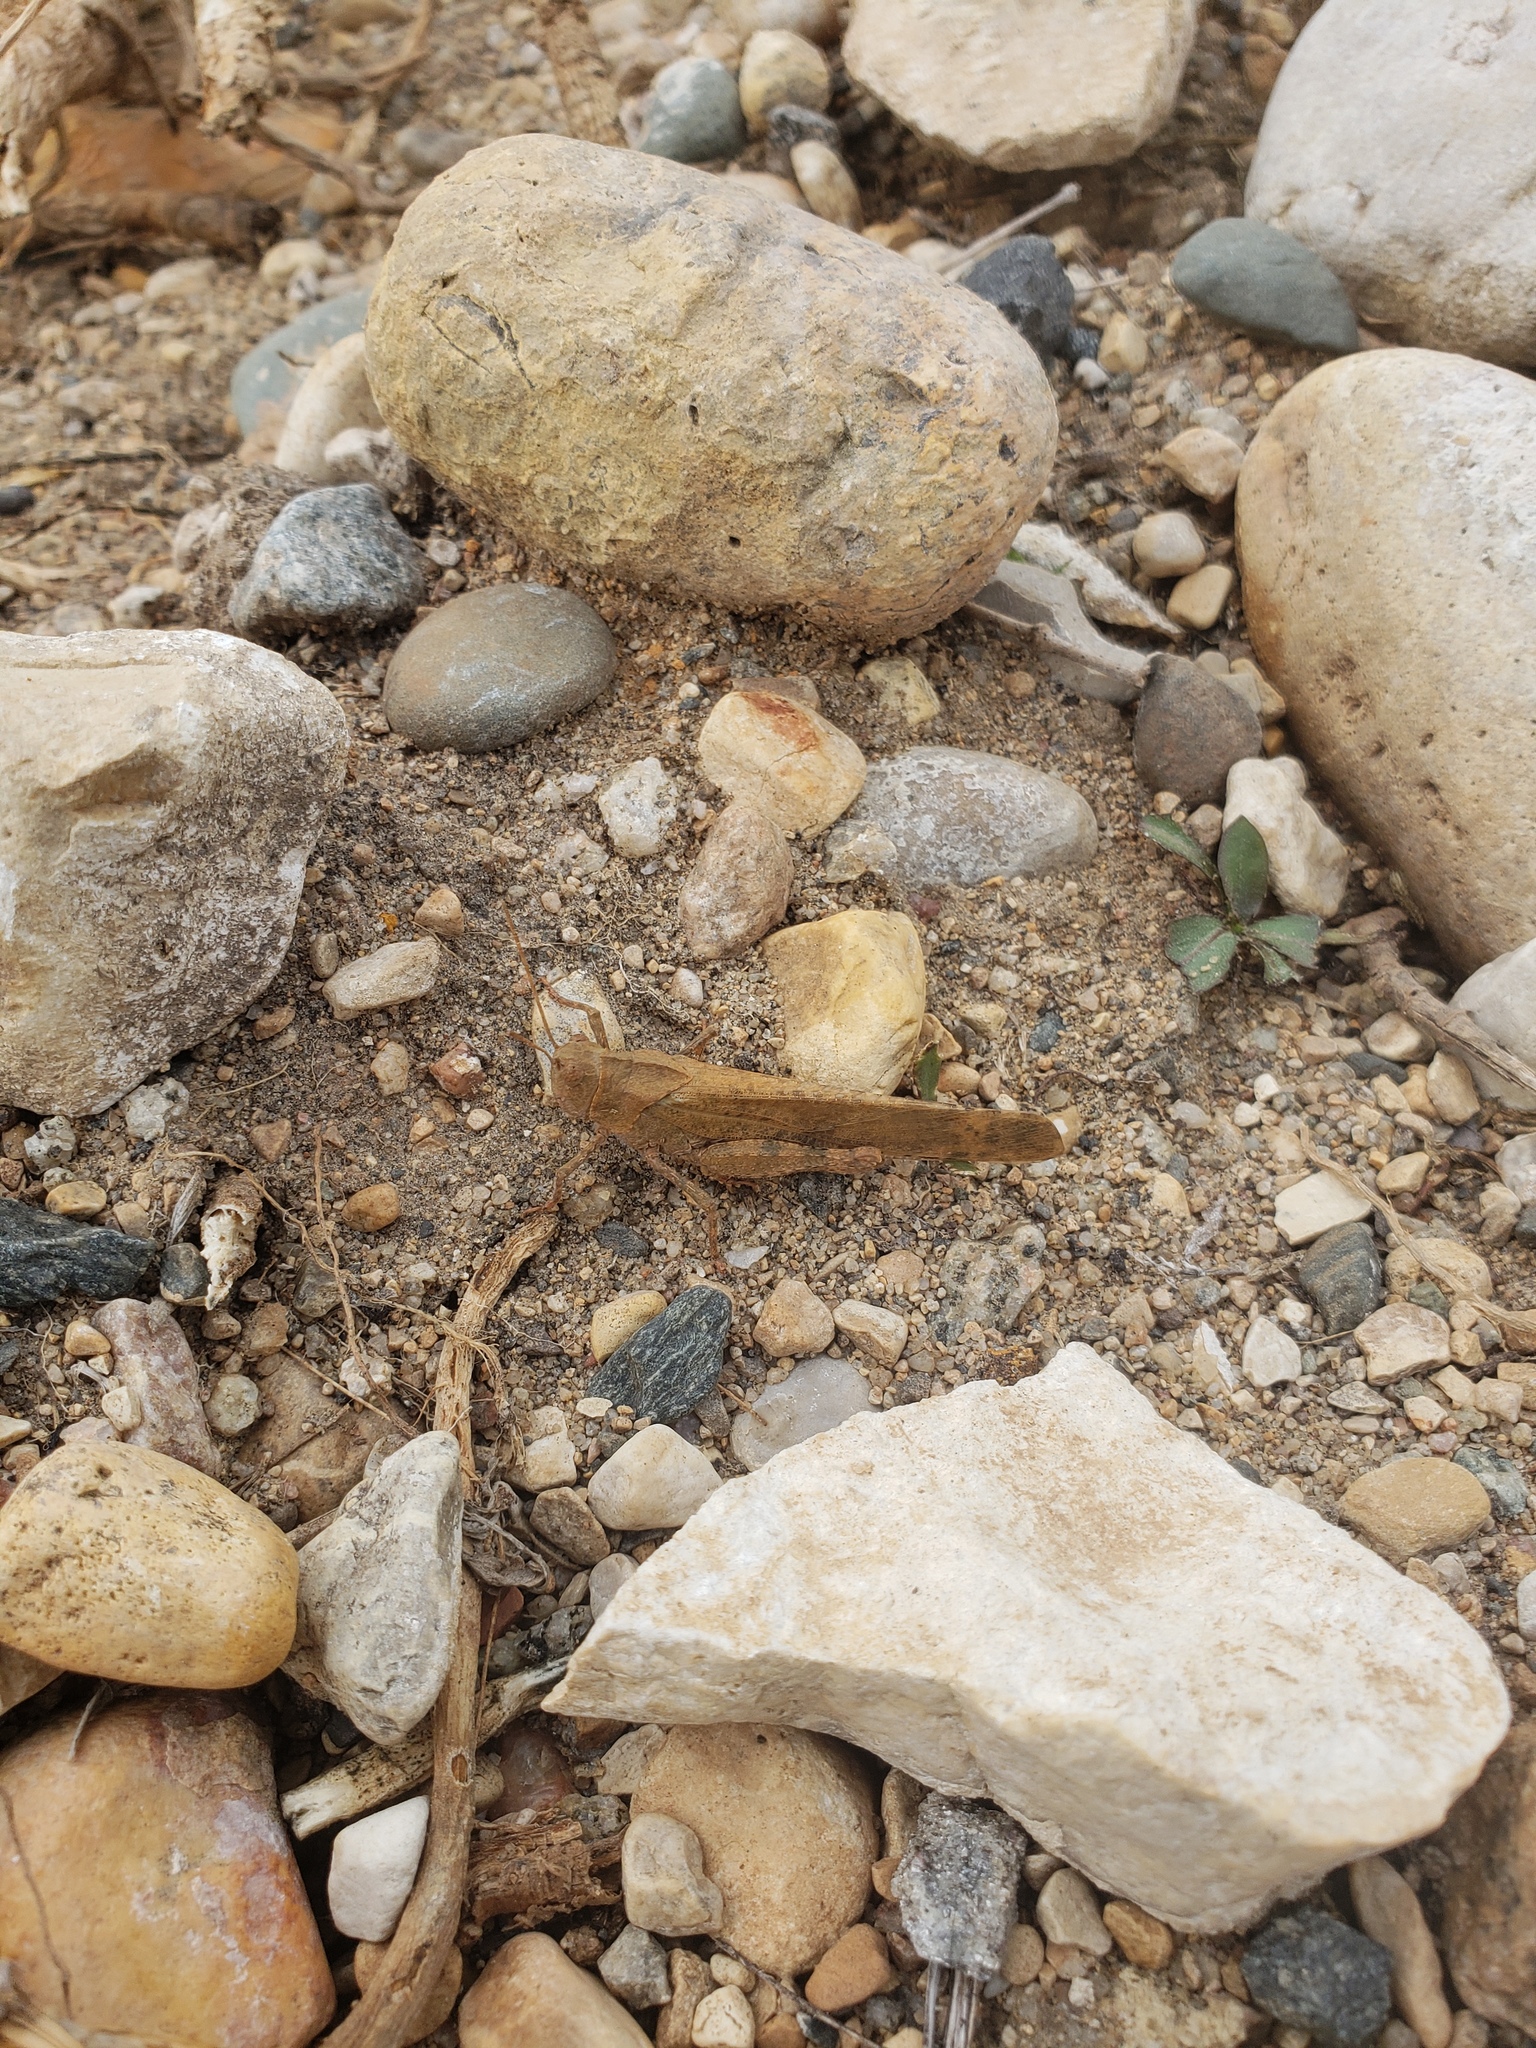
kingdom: Animalia
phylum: Arthropoda
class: Insecta
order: Orthoptera
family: Acrididae
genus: Dissosteira
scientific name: Dissosteira carolina
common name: Carolina grasshopper
